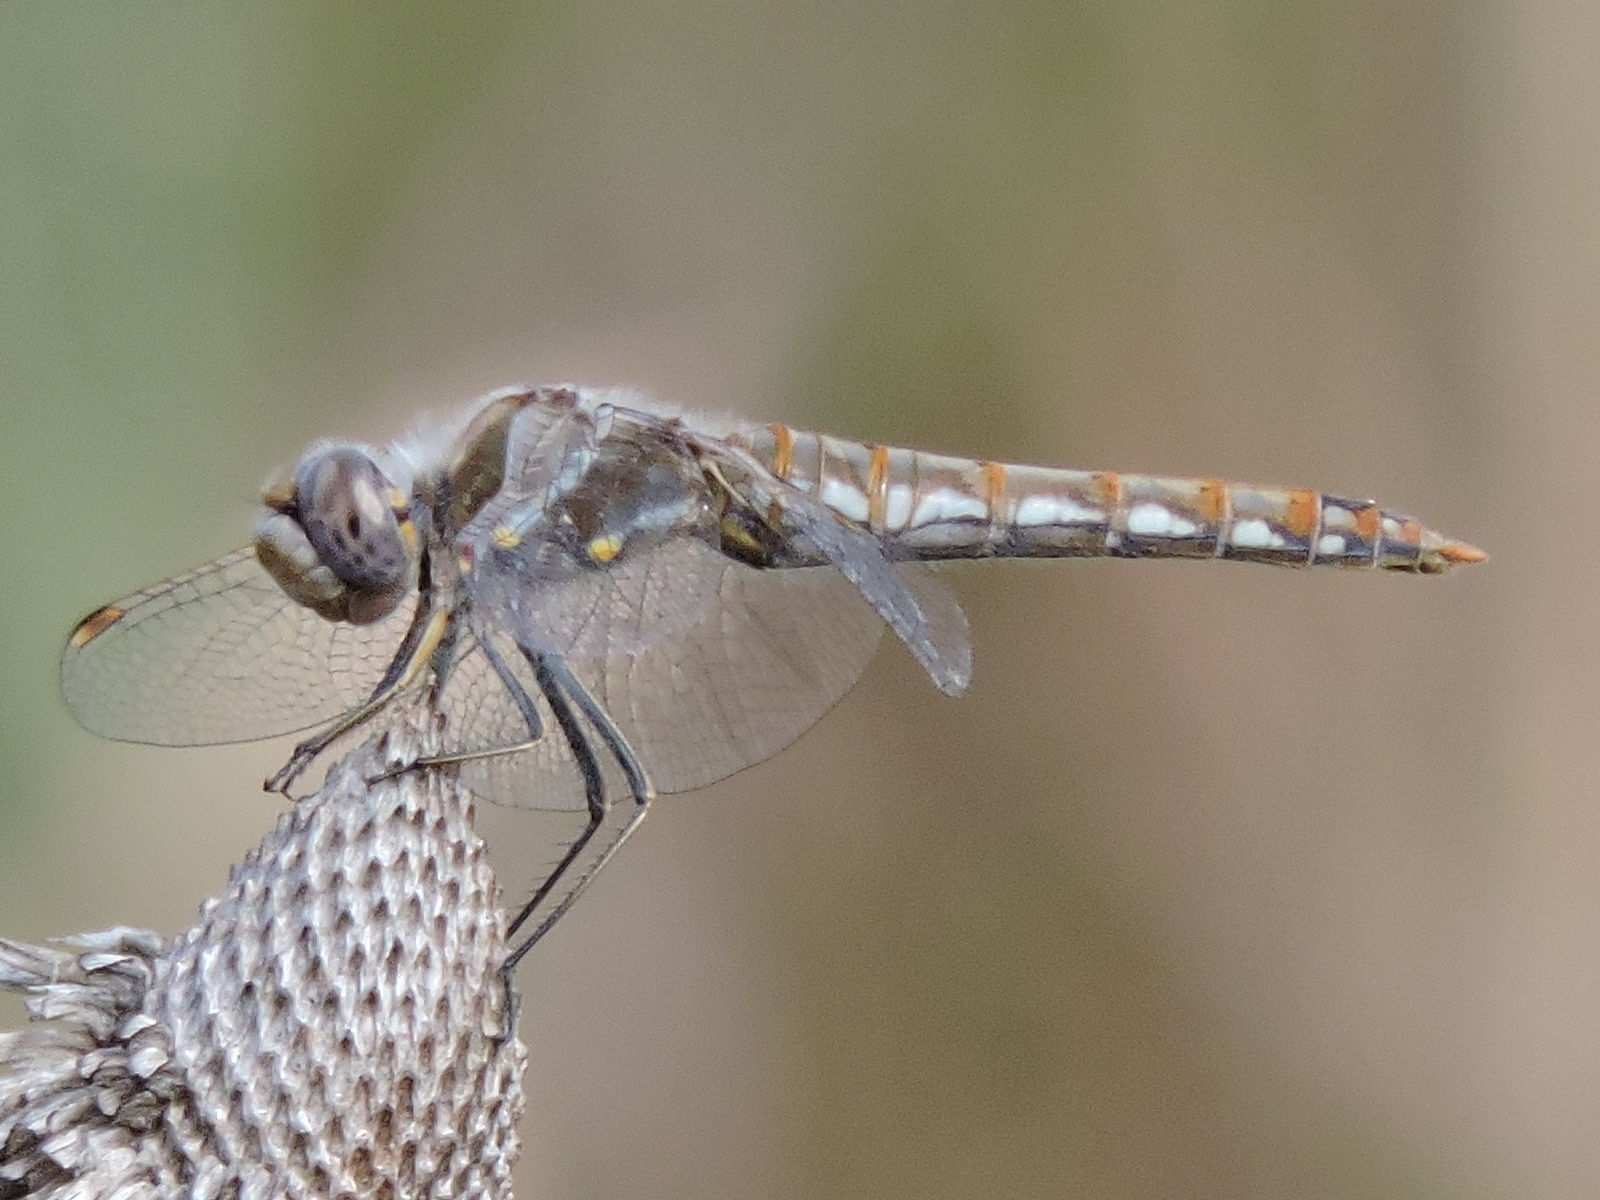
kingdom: Animalia
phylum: Arthropoda
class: Insecta
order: Odonata
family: Libellulidae
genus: Sympetrum
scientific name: Sympetrum corruptum
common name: Variegated meadowhawk
